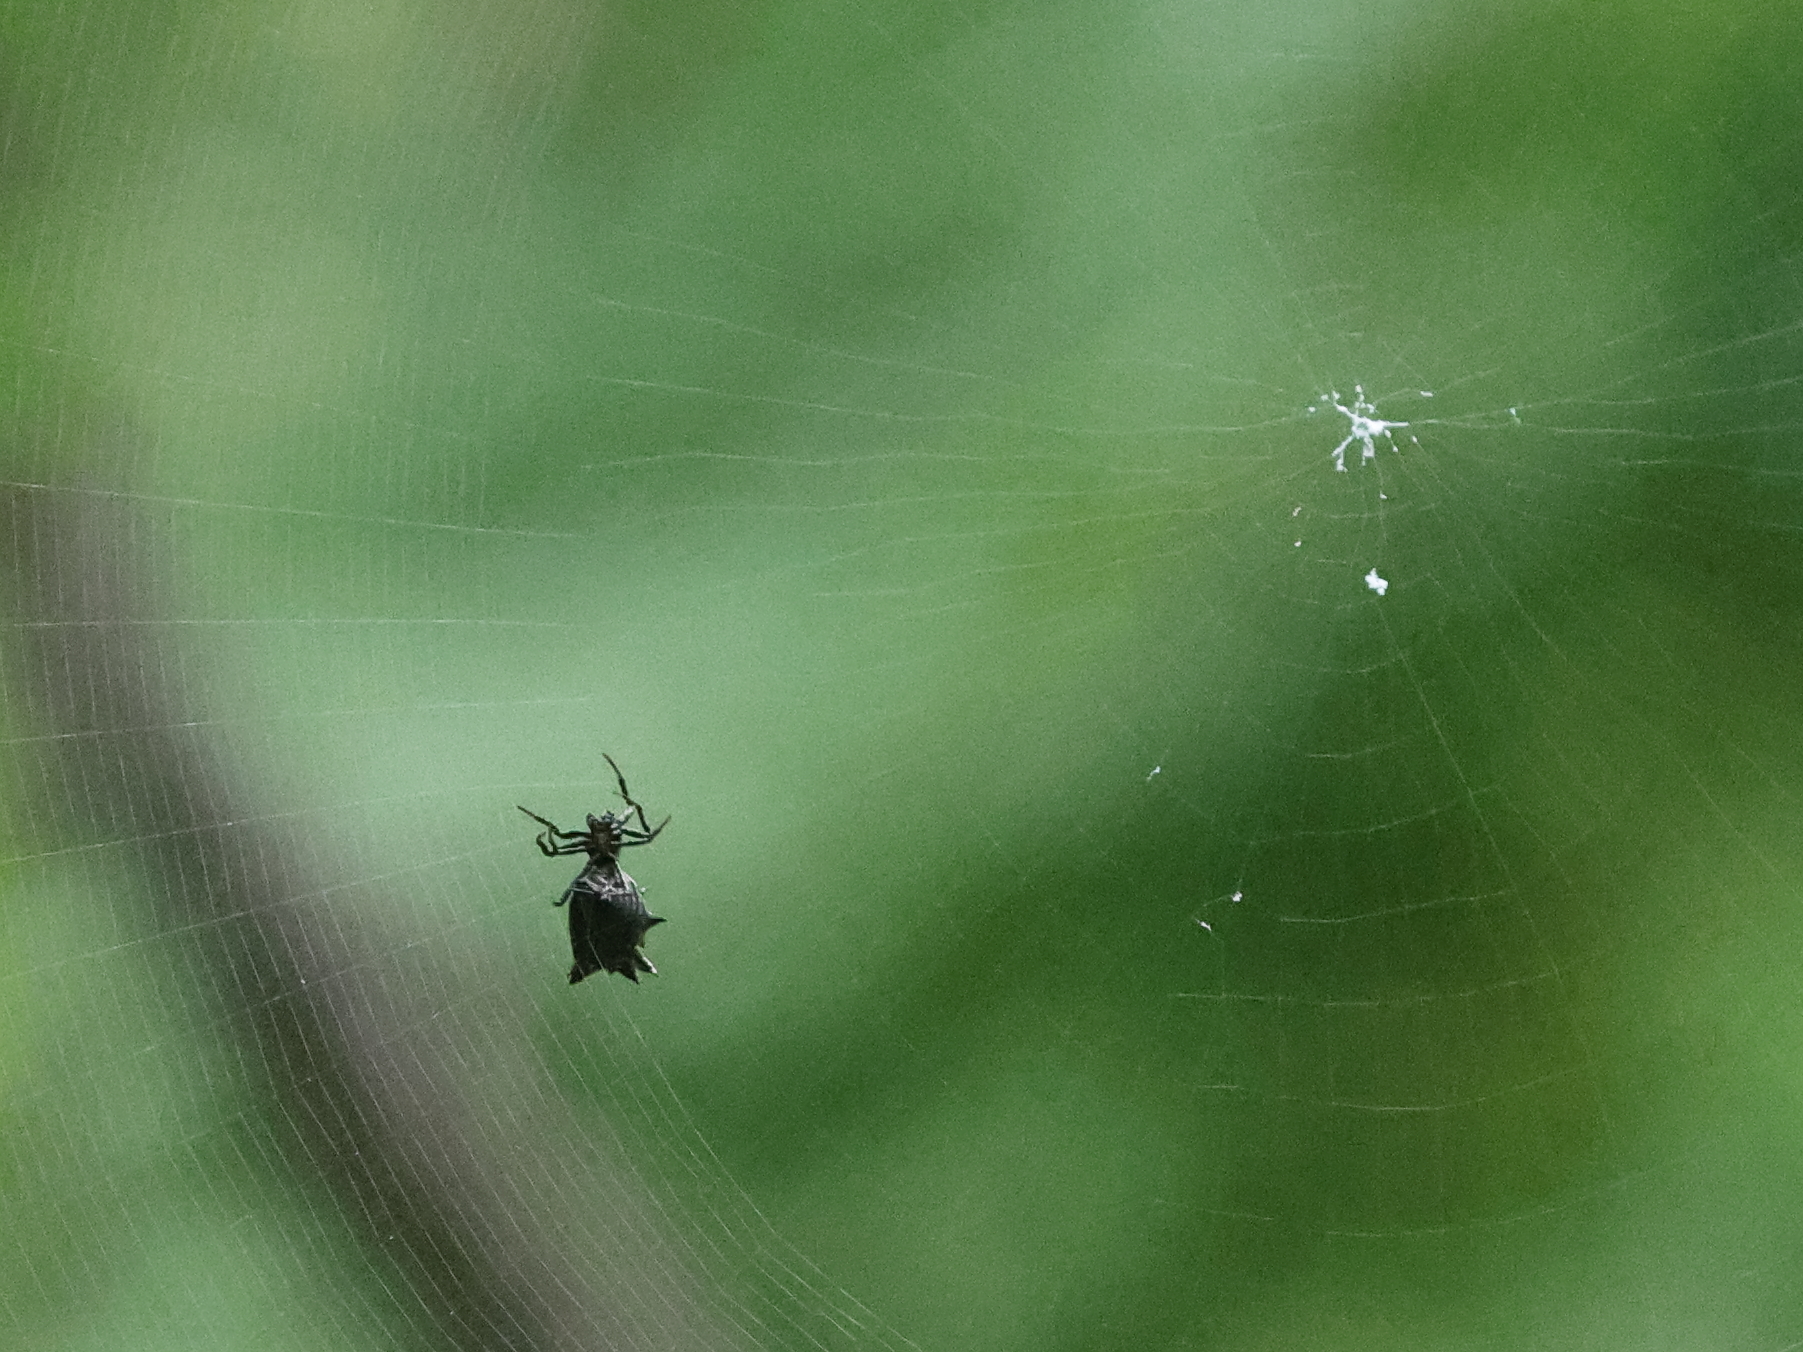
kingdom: Animalia
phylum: Arthropoda
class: Arachnida
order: Araneae
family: Araneidae
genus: Micrathena
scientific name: Micrathena gracilis
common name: Orb weavers
